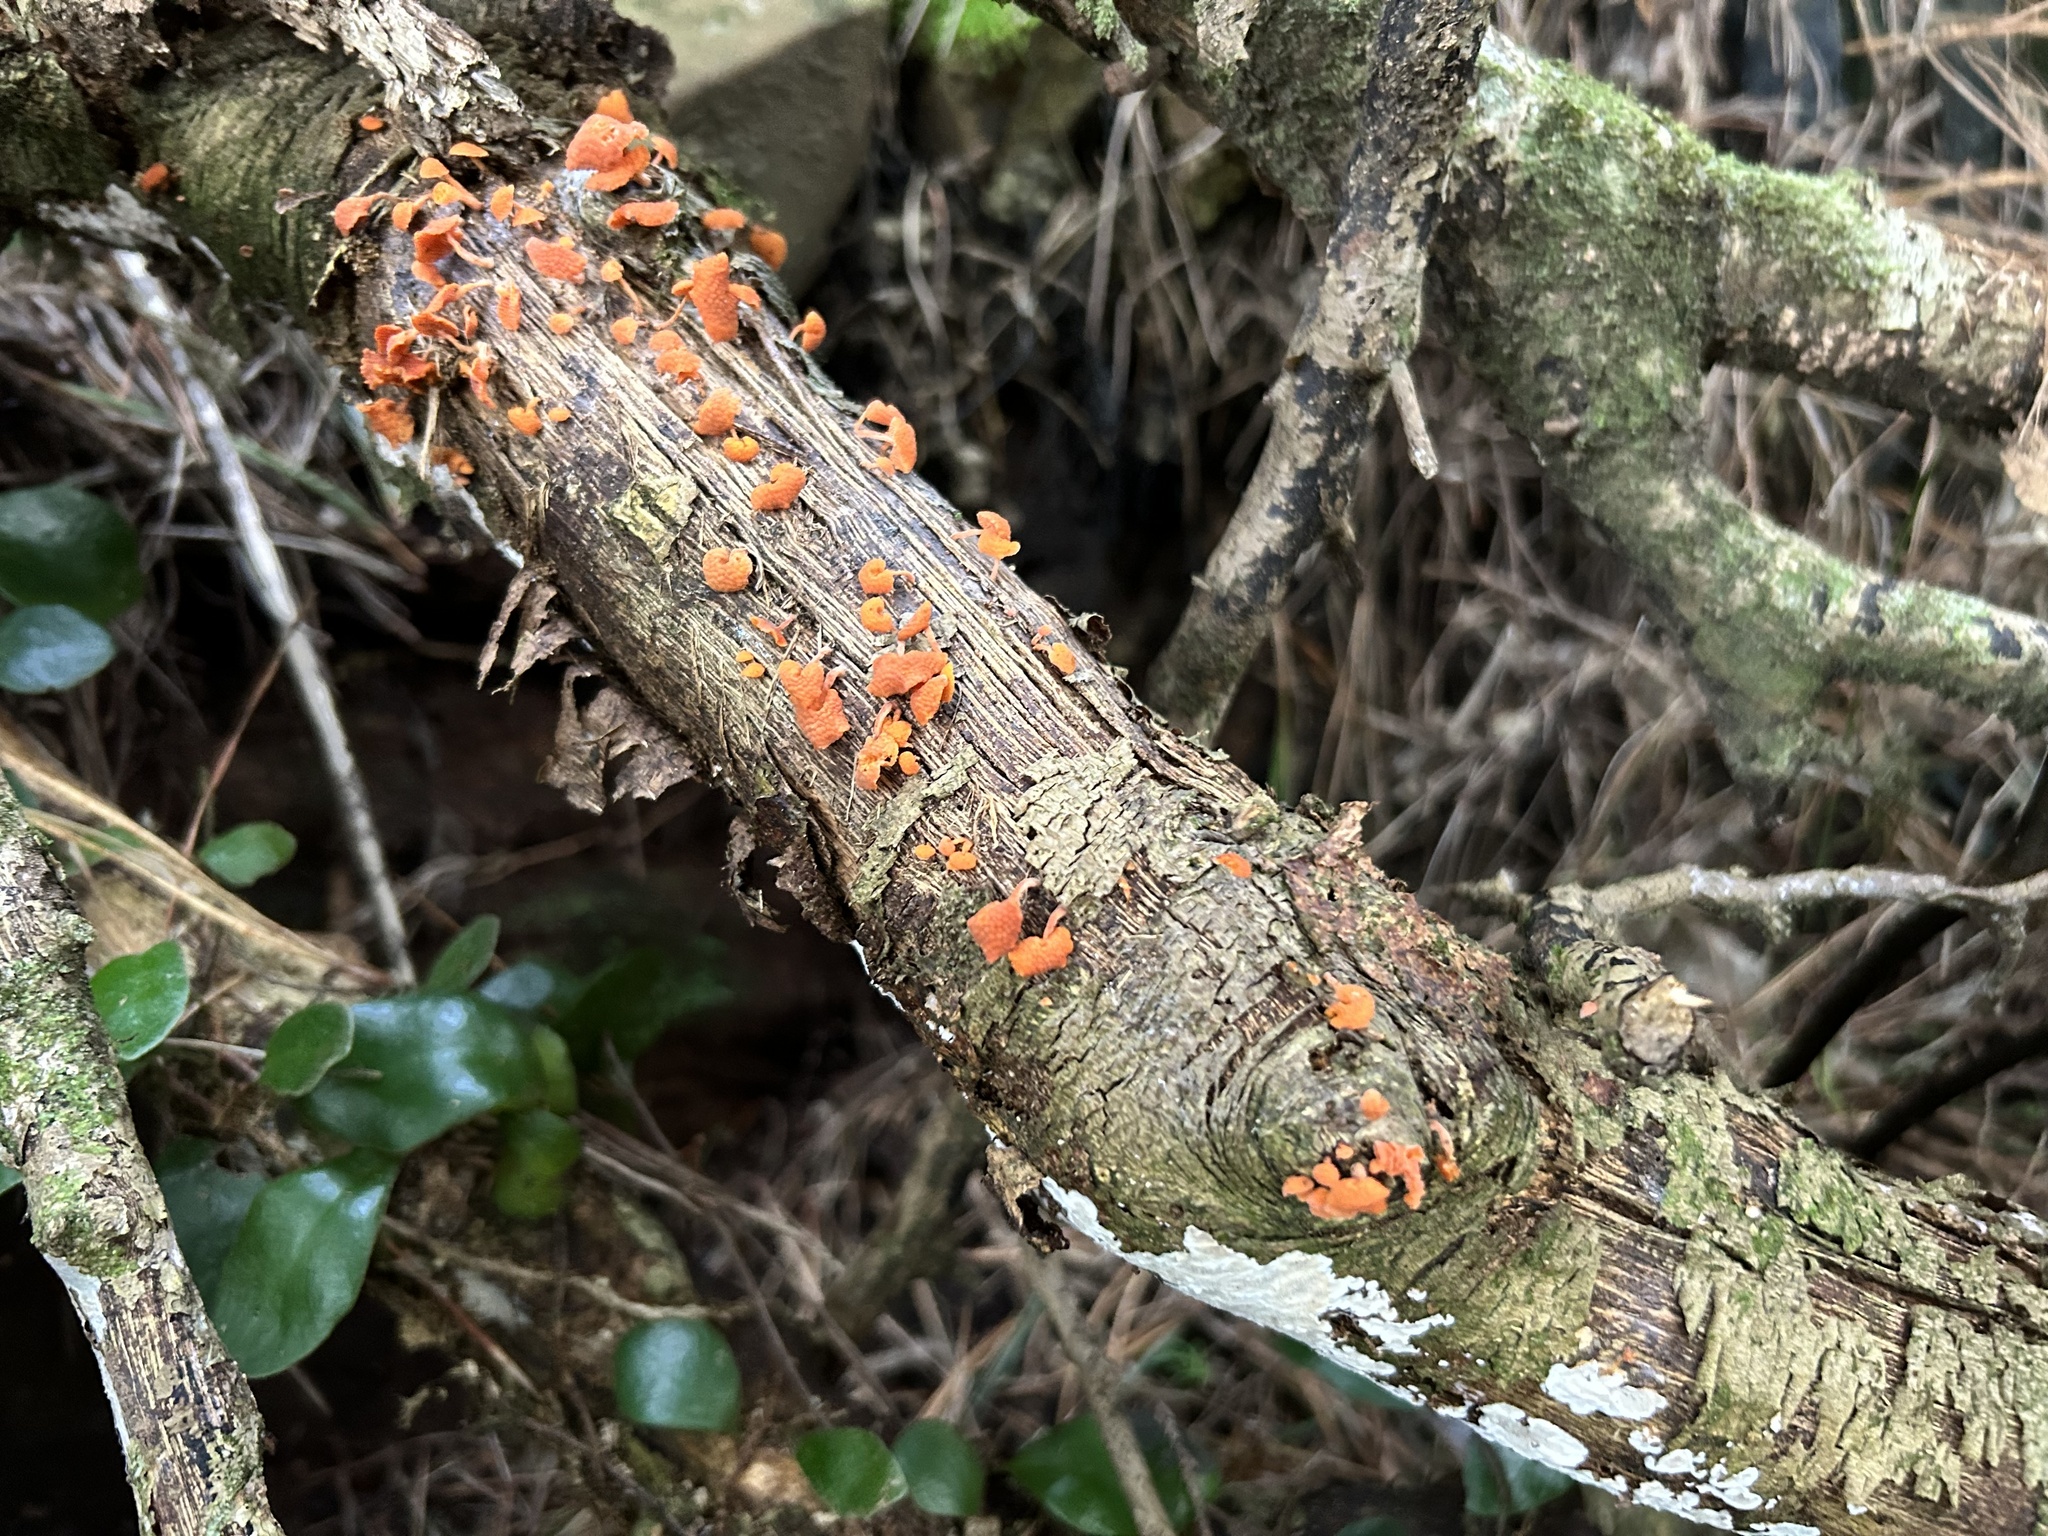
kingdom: Fungi
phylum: Basidiomycota
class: Agaricomycetes
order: Agaricales
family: Mycenaceae
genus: Favolaschia
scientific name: Favolaschia claudopus
